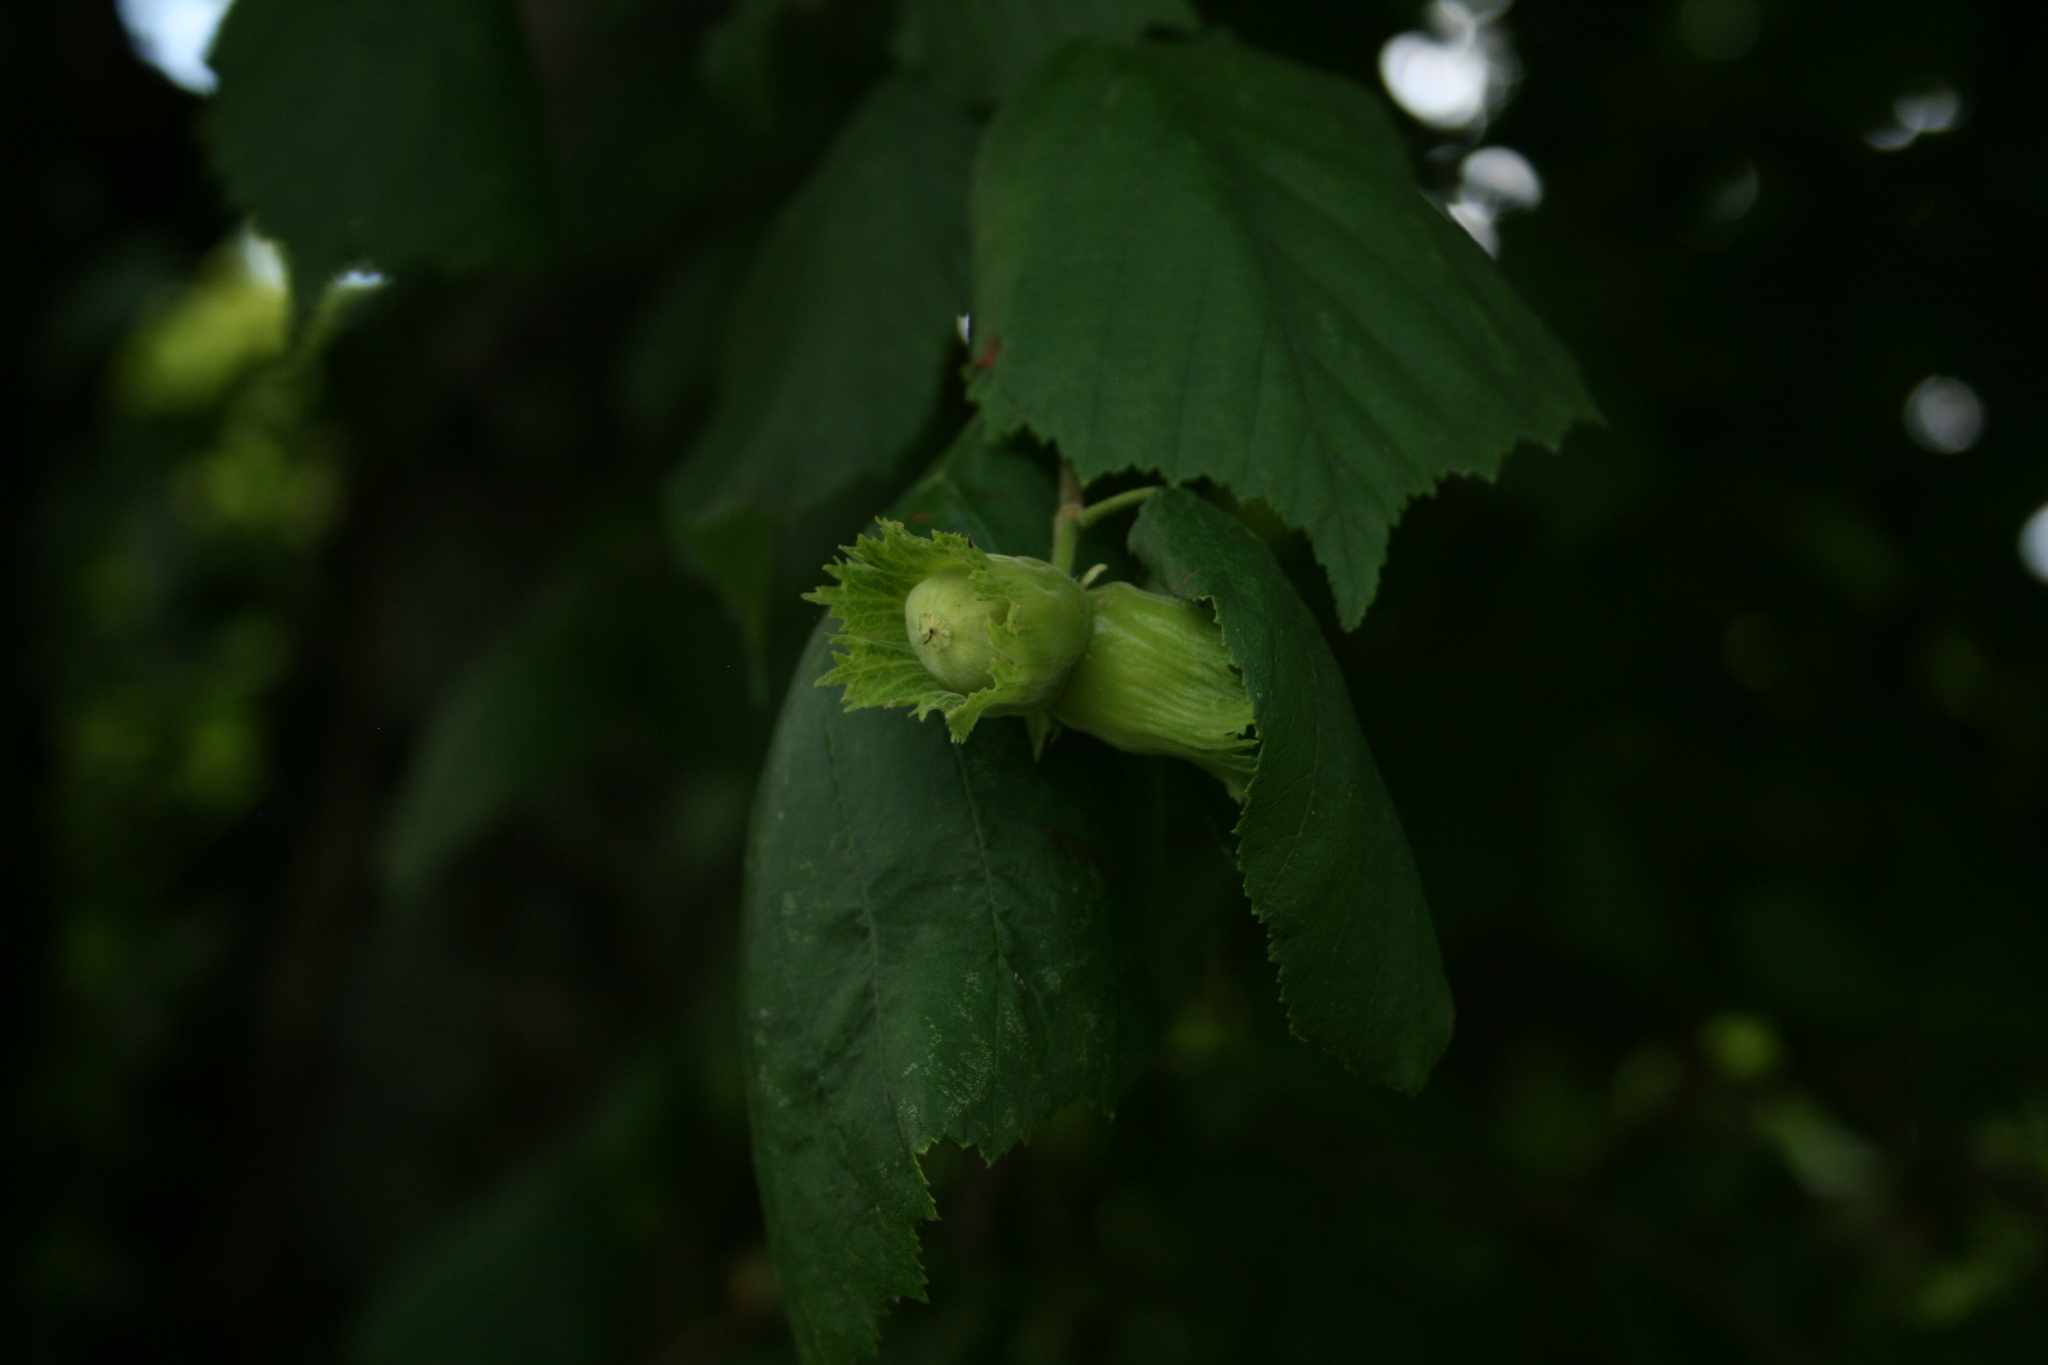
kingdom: Plantae
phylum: Tracheophyta
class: Magnoliopsida
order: Fagales
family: Betulaceae
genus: Corylus
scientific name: Corylus avellana
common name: European hazel
